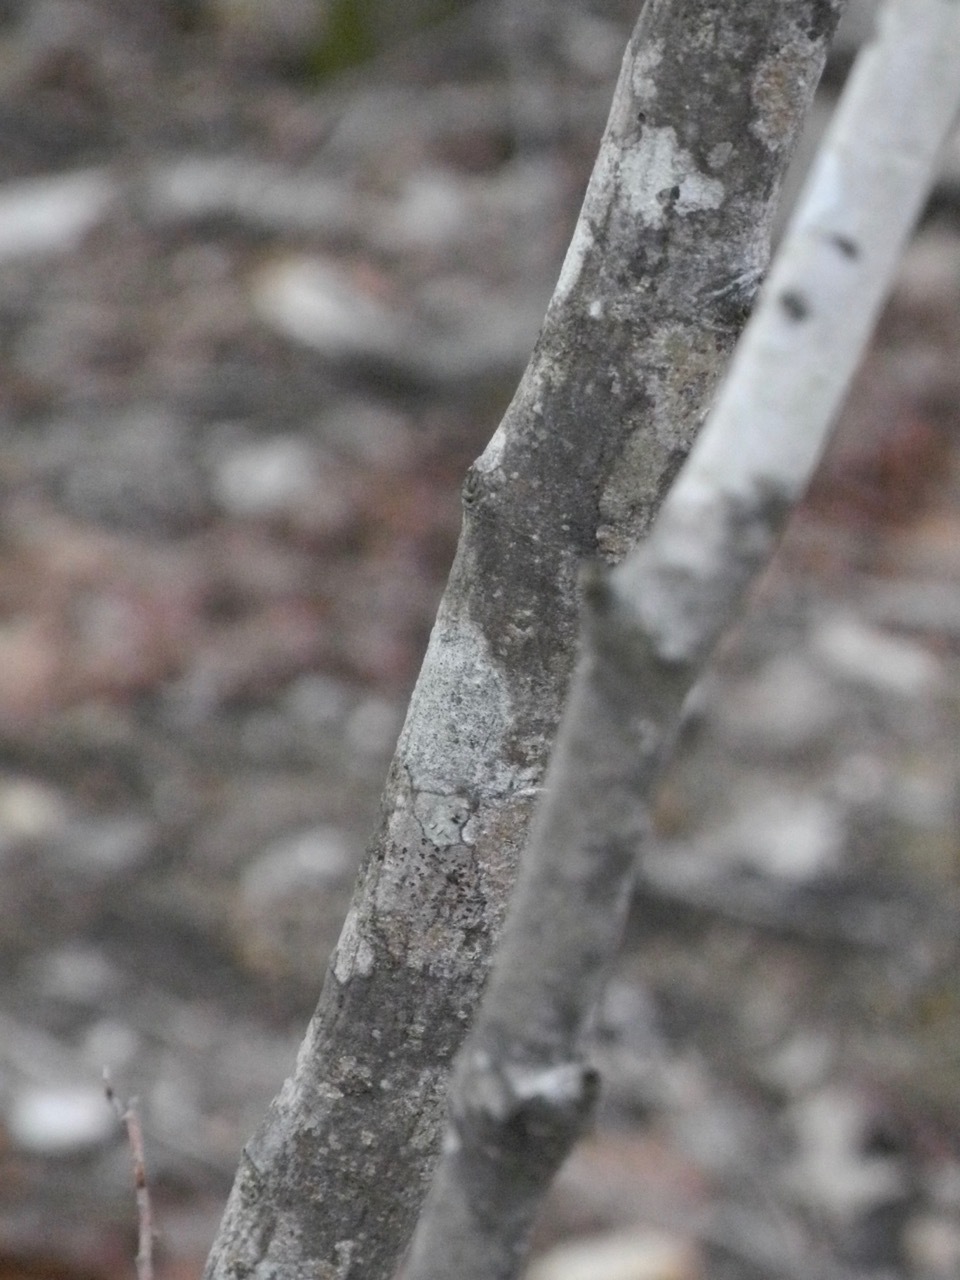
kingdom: Plantae
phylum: Tracheophyta
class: Magnoliopsida
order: Rosales
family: Rosaceae
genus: Amelanchier
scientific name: Amelanchier arborea
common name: Downy serviceberry
